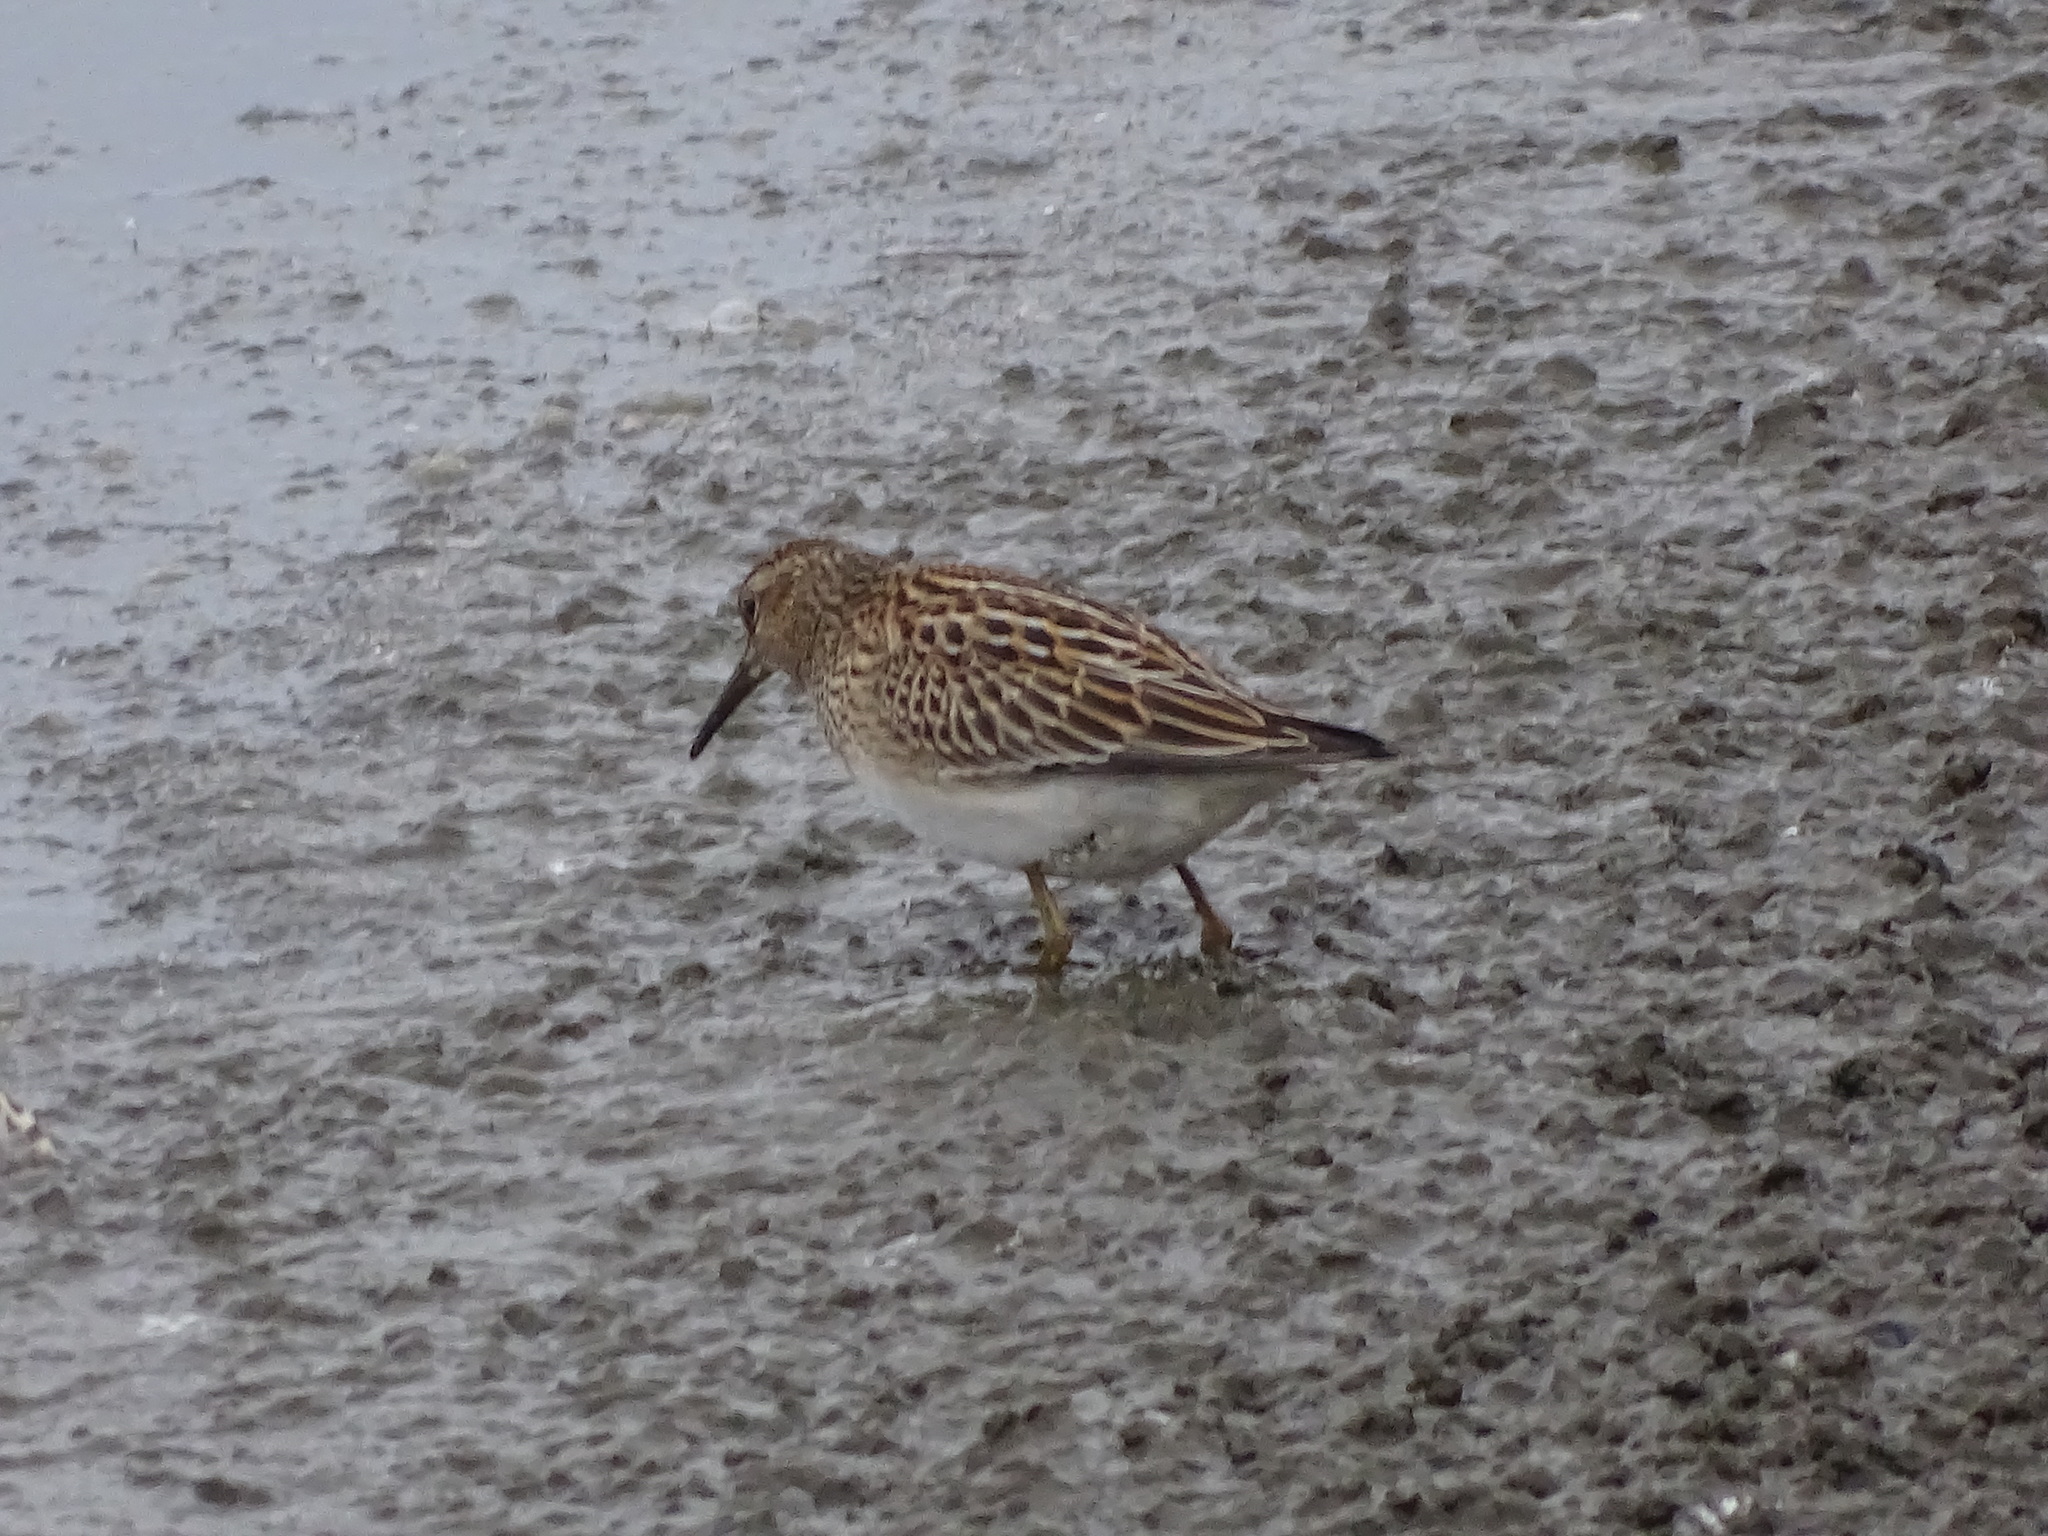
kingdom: Animalia
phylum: Chordata
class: Aves
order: Charadriiformes
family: Scolopacidae
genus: Calidris
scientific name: Calidris melanotos
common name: Pectoral sandpiper
